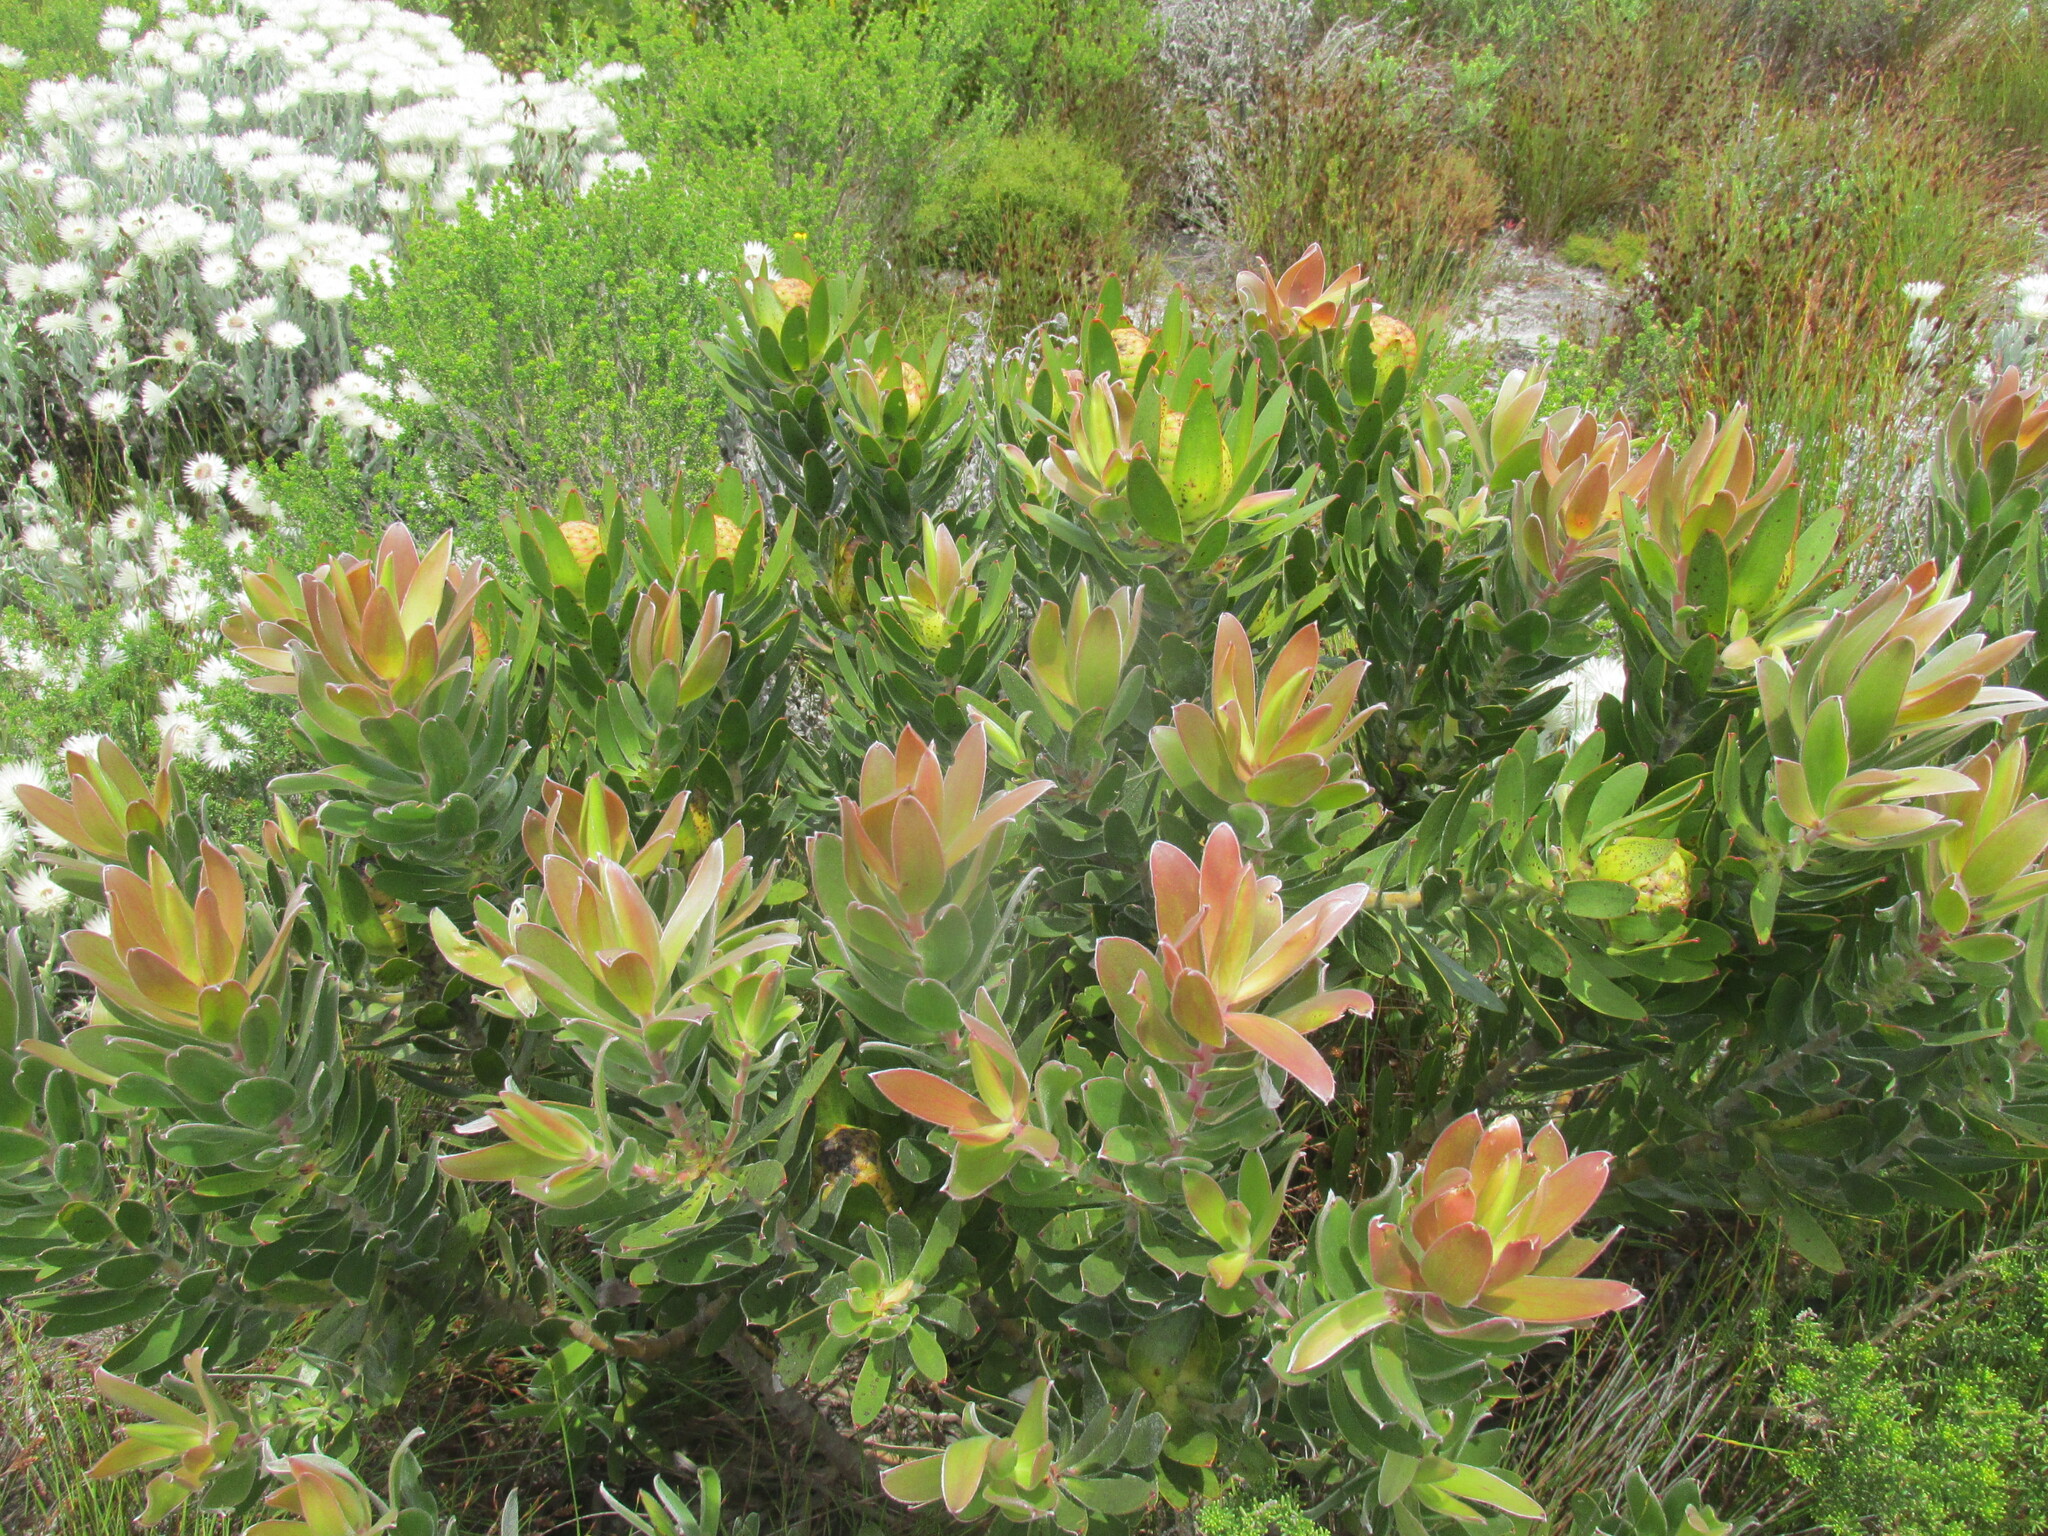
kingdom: Plantae
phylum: Tracheophyta
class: Magnoliopsida
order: Proteales
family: Proteaceae
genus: Leucadendron
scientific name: Leucadendron laureolum
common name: Golden sunshinebush
